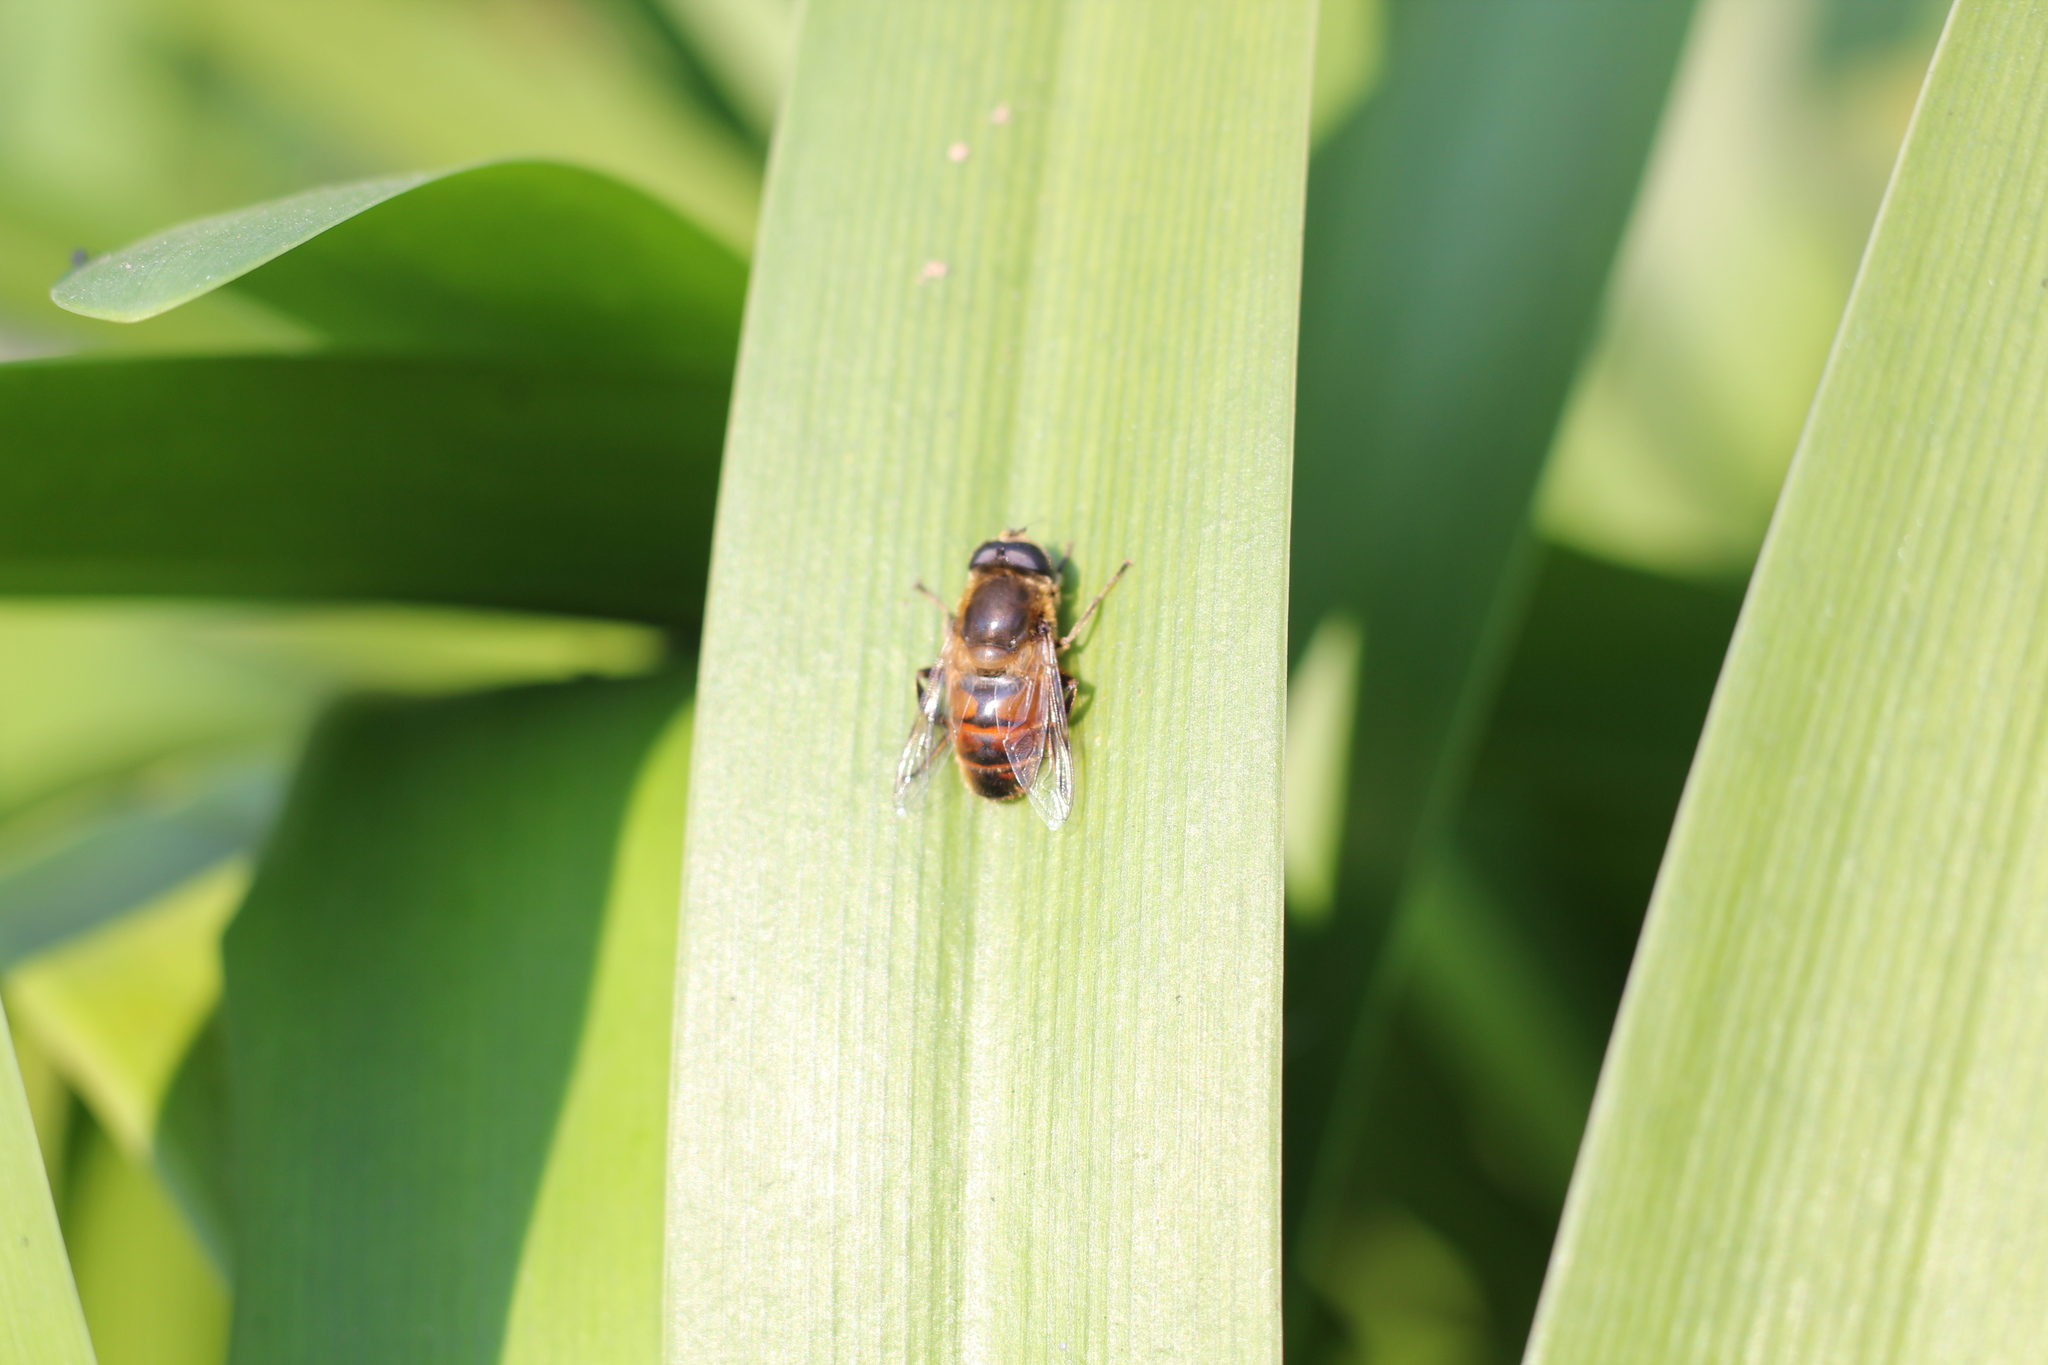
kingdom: Animalia
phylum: Arthropoda
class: Insecta
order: Diptera
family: Syrphidae
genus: Eristalis
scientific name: Eristalis tenax
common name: Drone fly
